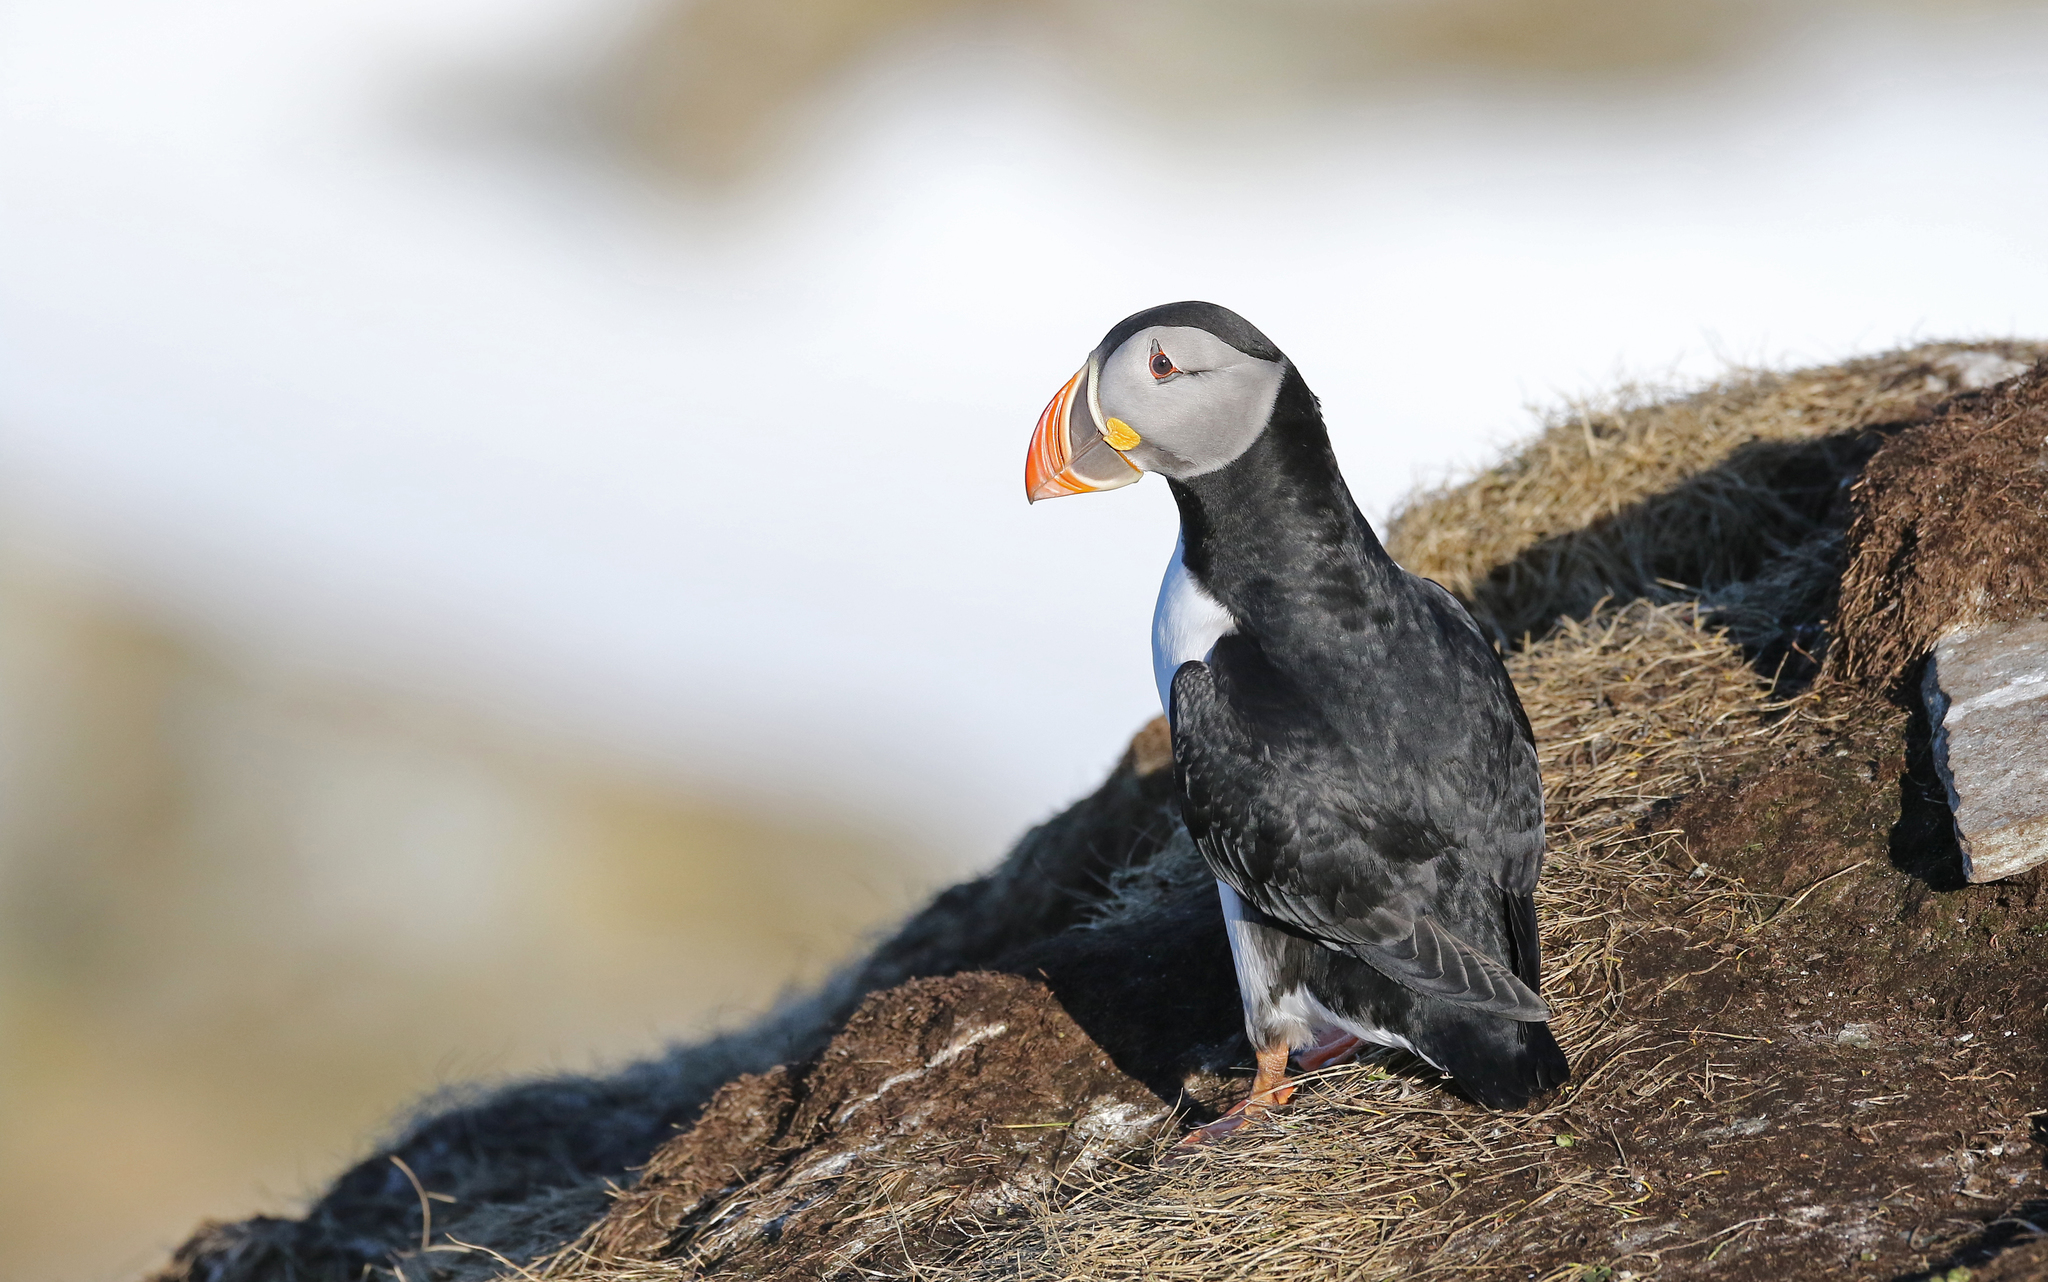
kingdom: Animalia
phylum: Chordata
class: Aves
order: Charadriiformes
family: Alcidae
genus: Fratercula
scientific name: Fratercula arctica
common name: Atlantic puffin
